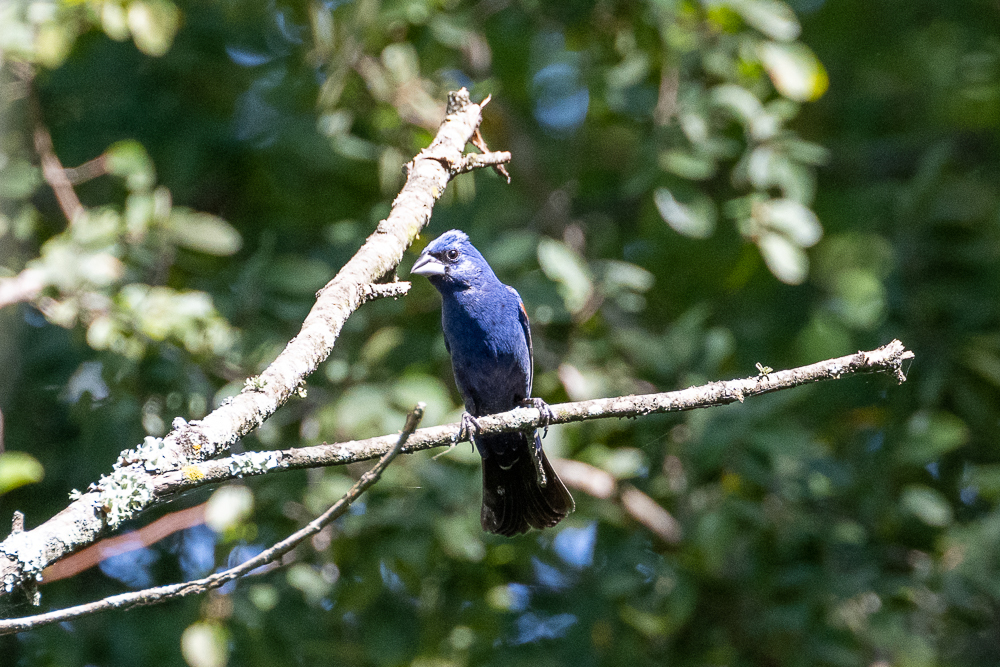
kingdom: Animalia
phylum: Chordata
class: Aves
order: Passeriformes
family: Cardinalidae
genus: Passerina
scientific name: Passerina caerulea
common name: Blue grosbeak
